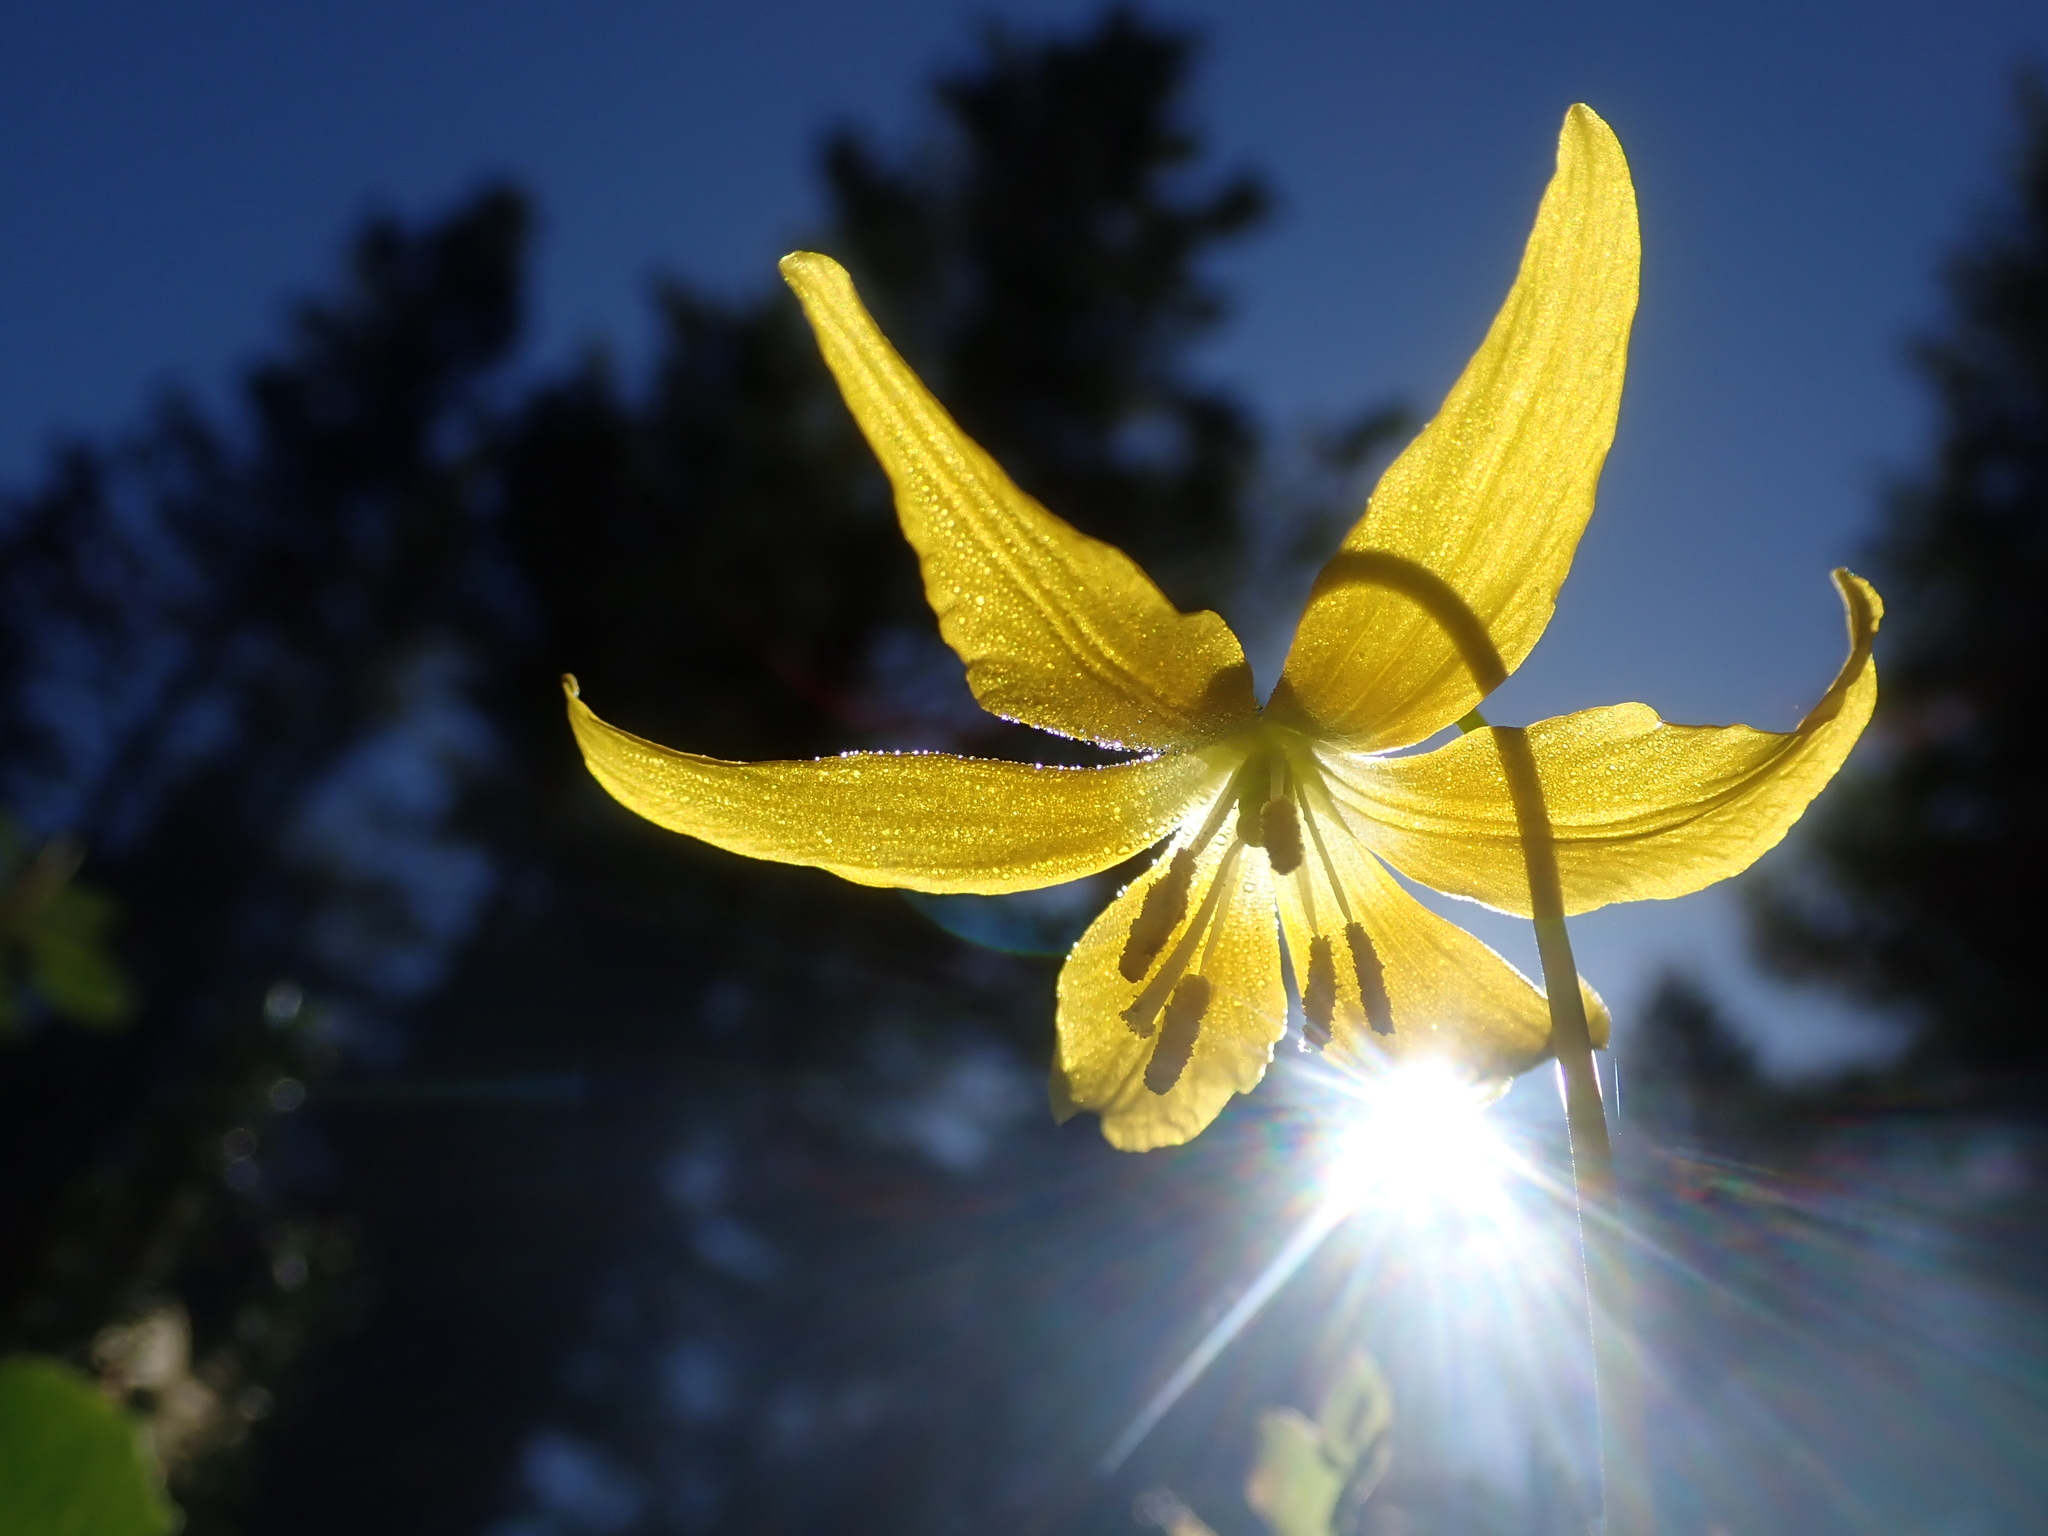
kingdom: Plantae
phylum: Tracheophyta
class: Liliopsida
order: Liliales
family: Liliaceae
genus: Erythronium
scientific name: Erythronium grandiflorum
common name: Avalanche-lily
